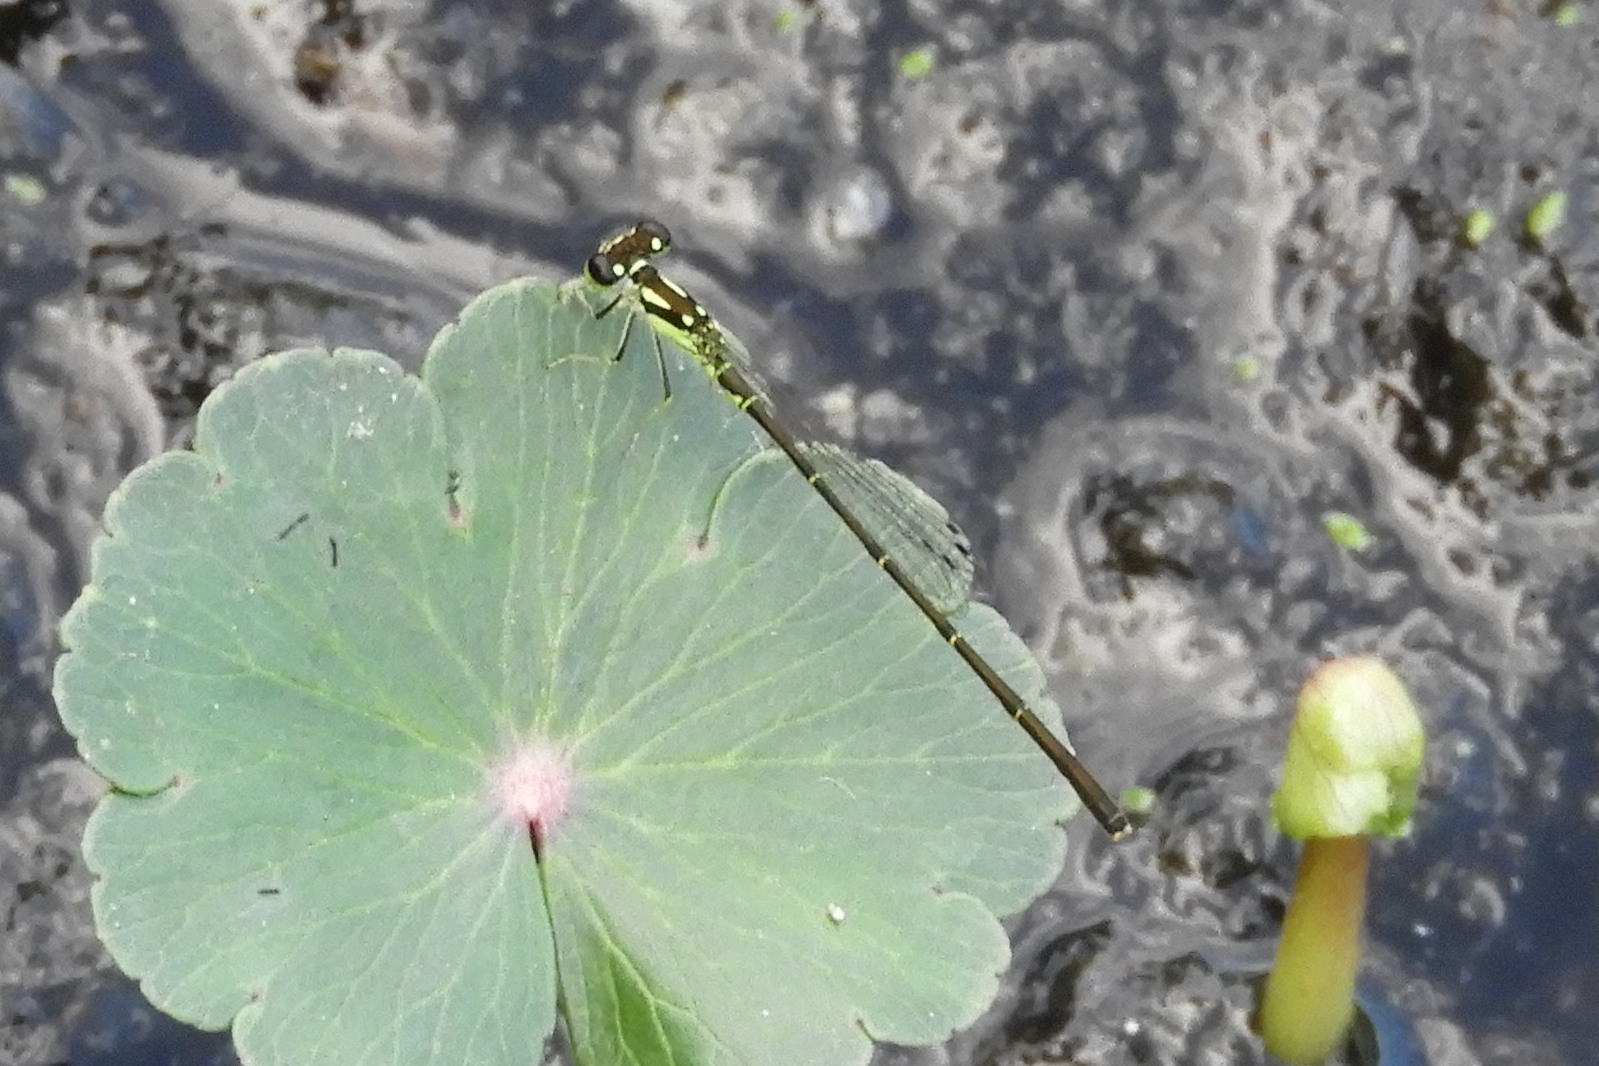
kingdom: Animalia
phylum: Arthropoda
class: Insecta
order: Odonata
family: Coenagrionidae
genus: Ischnura
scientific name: Ischnura posita
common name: Fragile forktail
